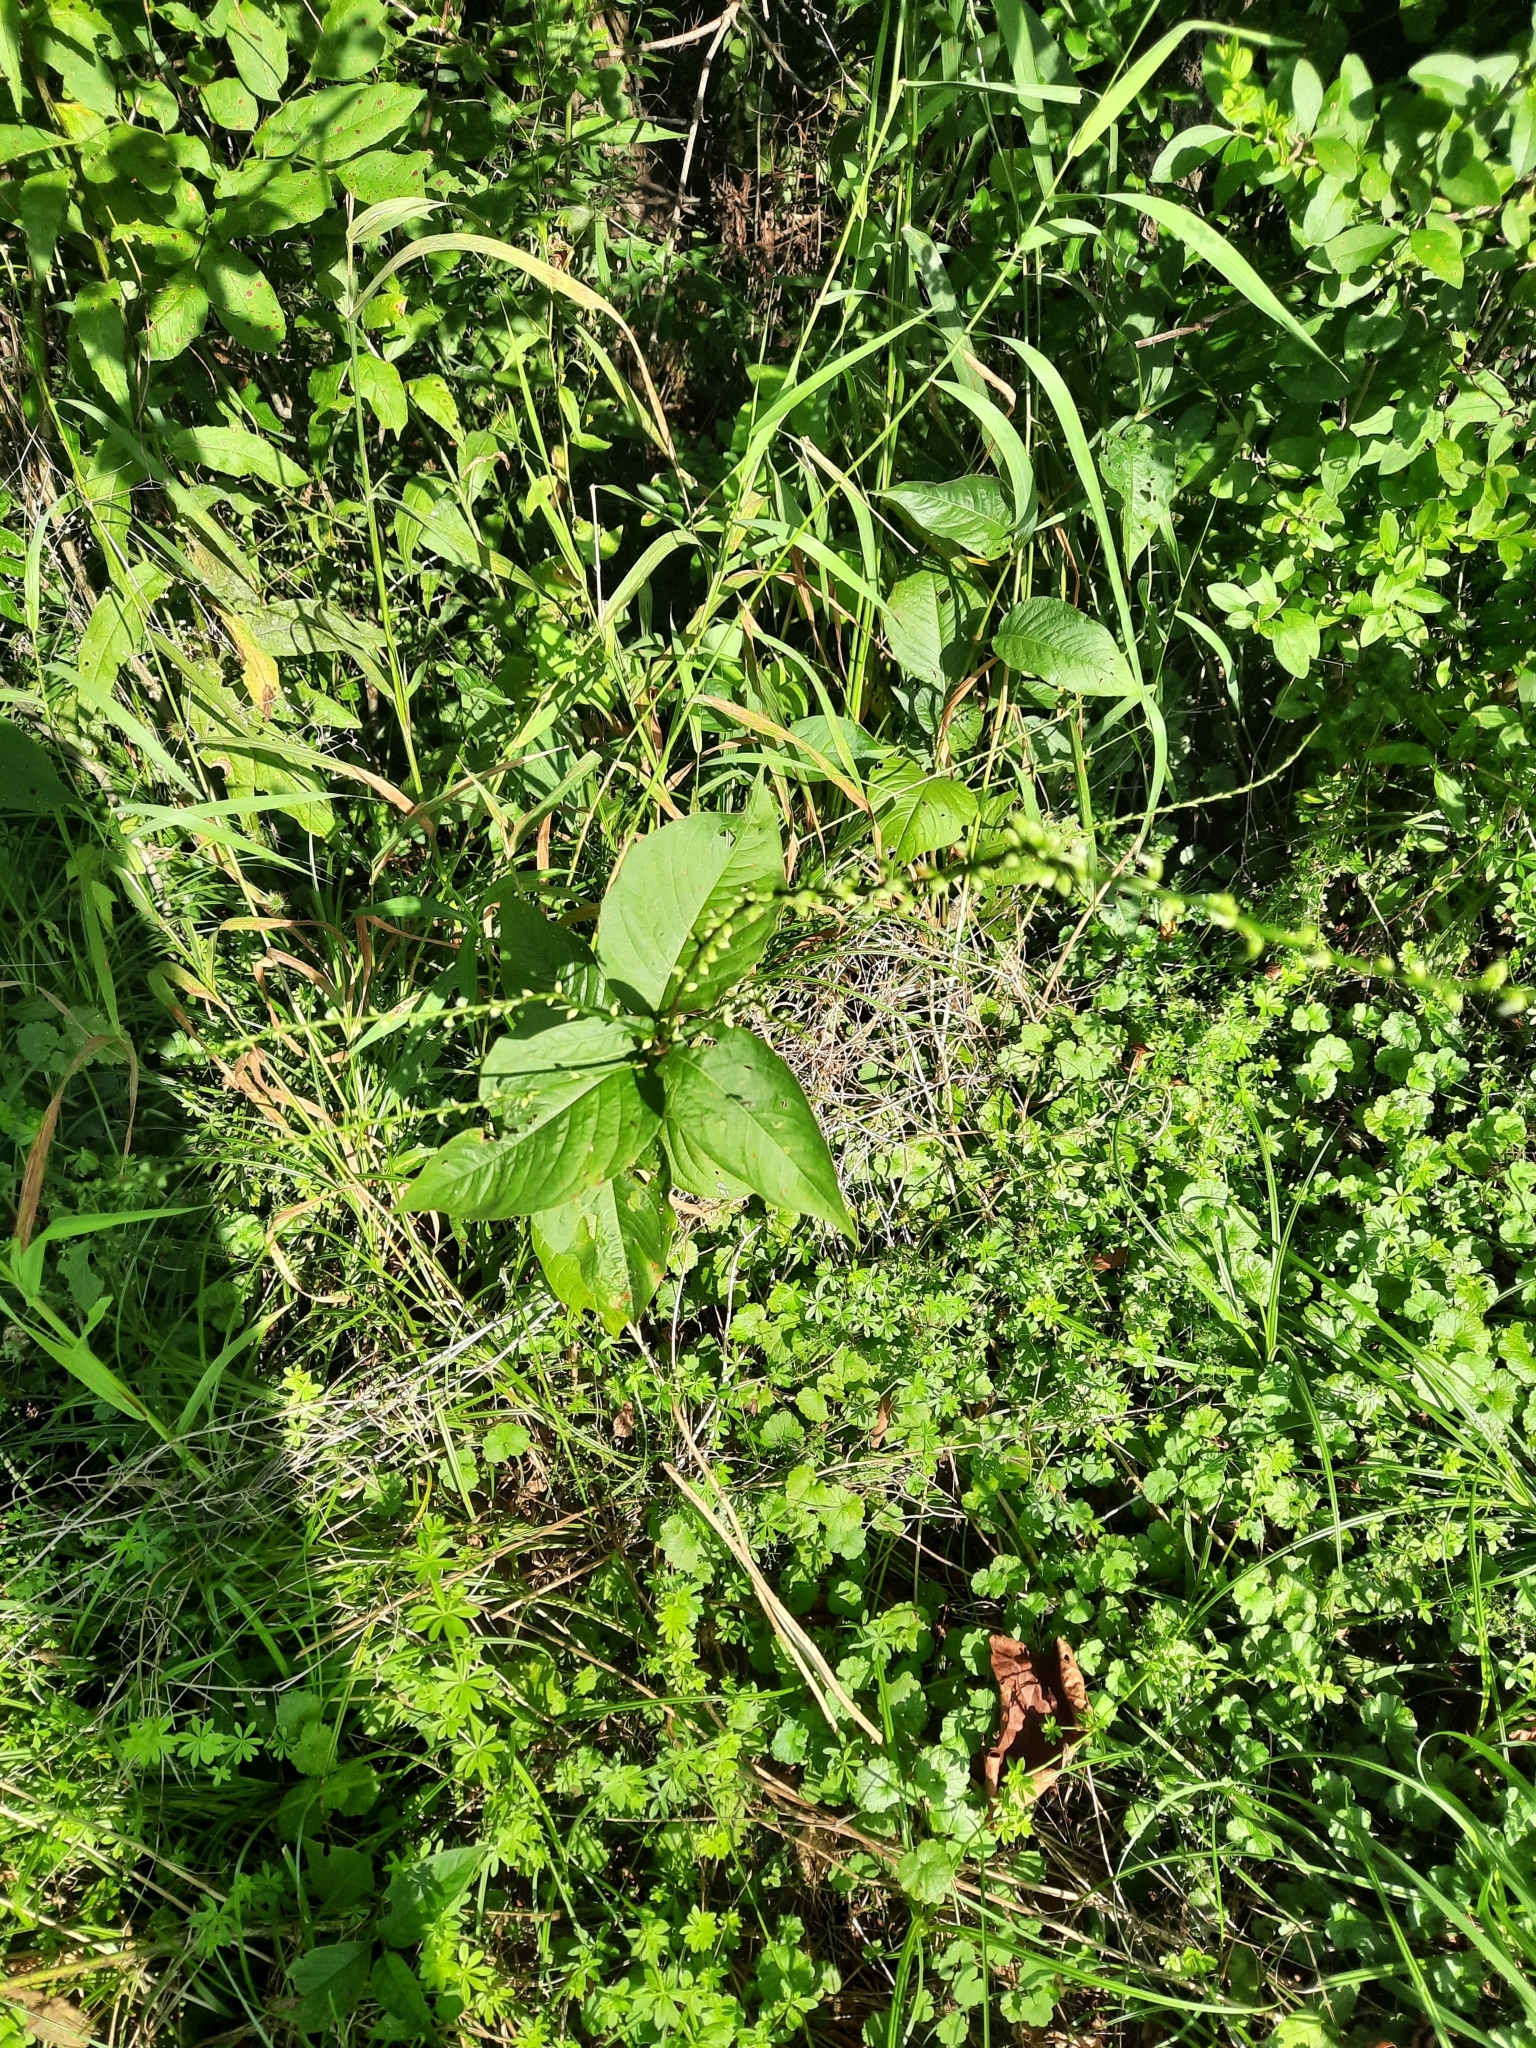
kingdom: Plantae
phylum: Tracheophyta
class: Magnoliopsida
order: Caryophyllales
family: Polygonaceae
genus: Persicaria
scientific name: Persicaria virginiana
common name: Jumpseed
